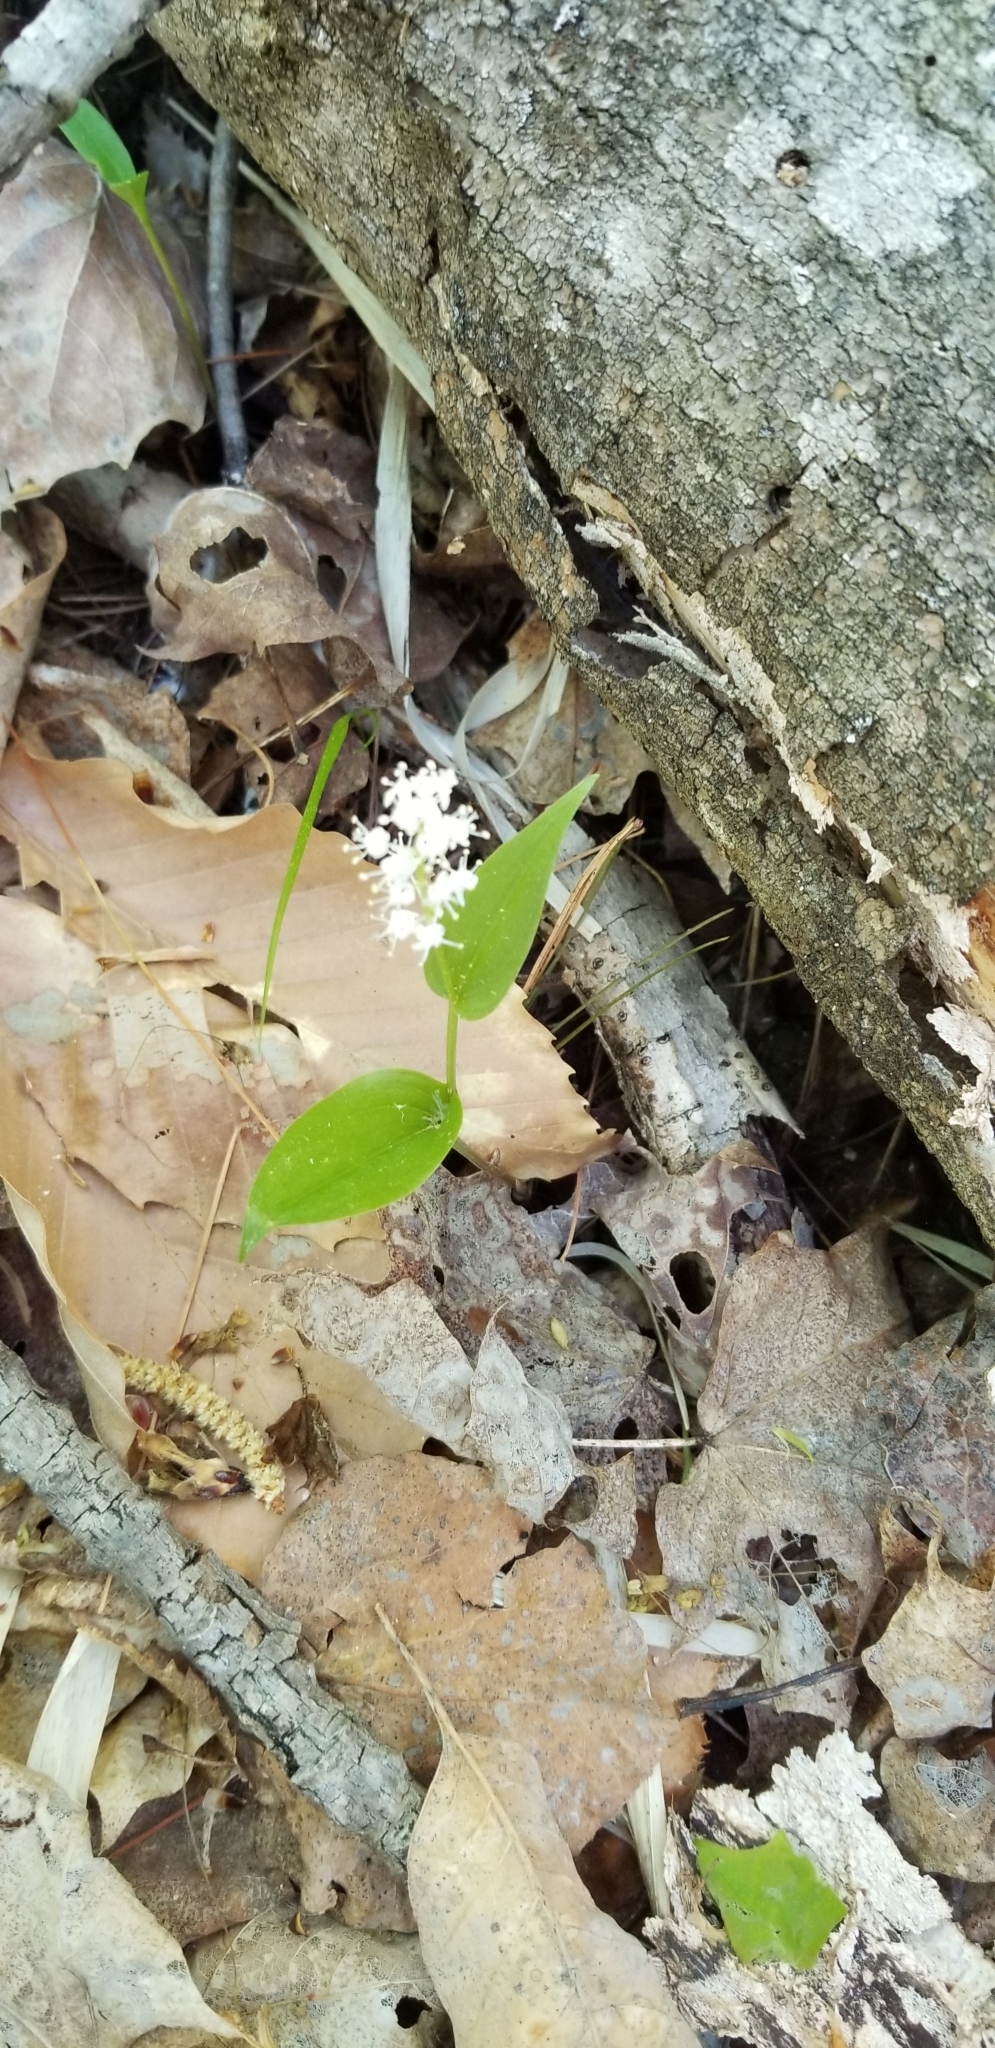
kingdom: Plantae
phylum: Tracheophyta
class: Liliopsida
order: Asparagales
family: Asparagaceae
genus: Maianthemum
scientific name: Maianthemum canadense
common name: False lily-of-the-valley
